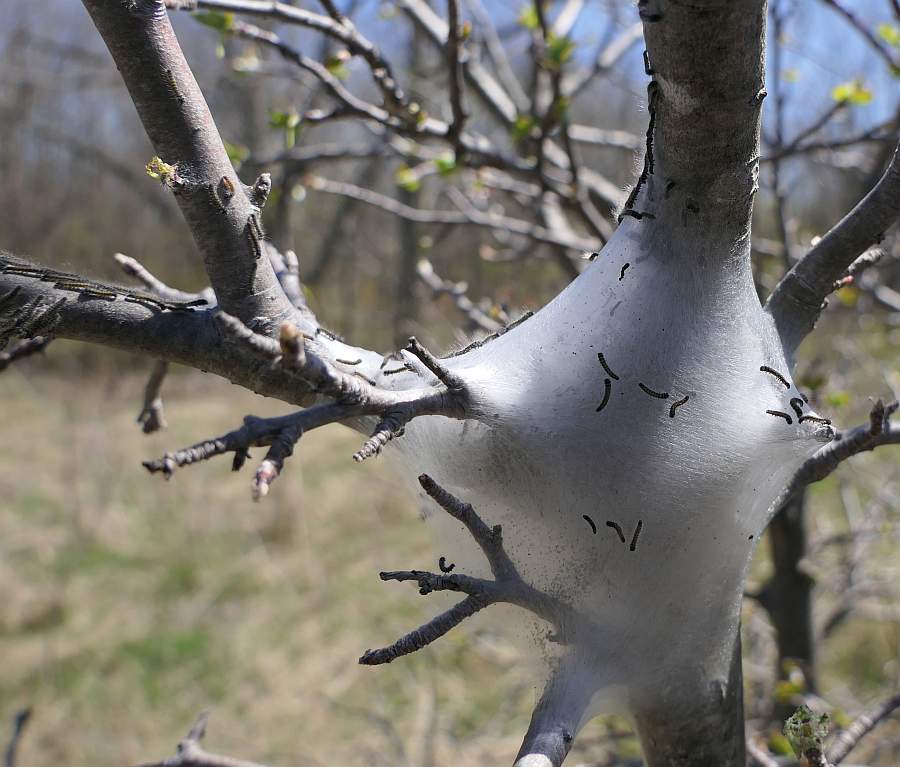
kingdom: Animalia
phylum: Arthropoda
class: Insecta
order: Lepidoptera
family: Lasiocampidae
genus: Malacosoma
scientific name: Malacosoma americana
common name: Eastern tent caterpillar moth
